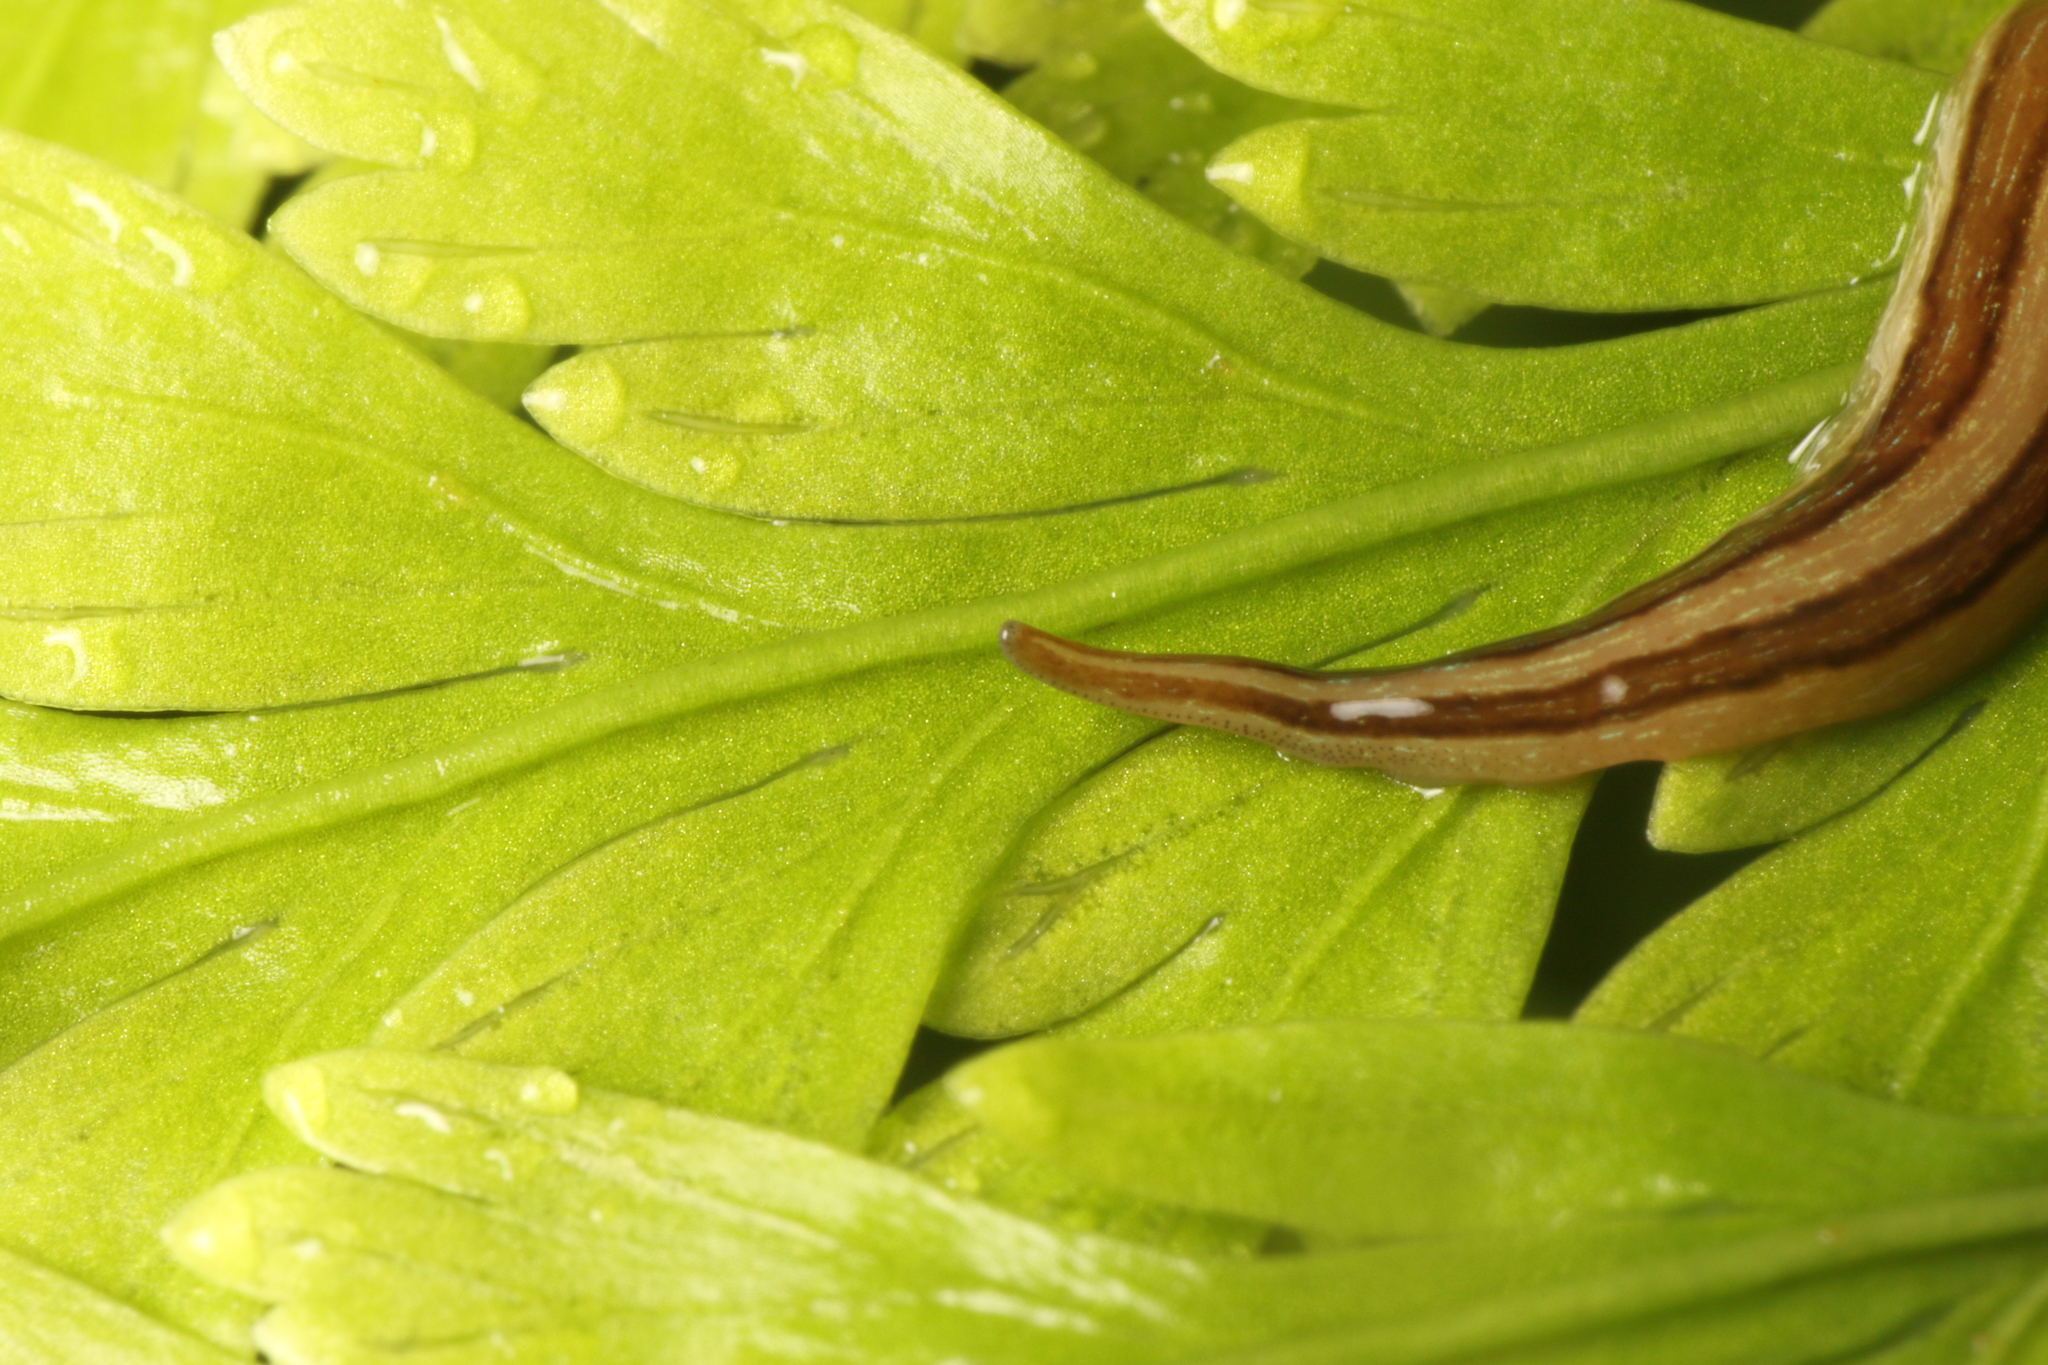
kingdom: Animalia
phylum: Platyhelminthes
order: Tricladida
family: Geoplanidae
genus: Newzealandia
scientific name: Newzealandia graffii
